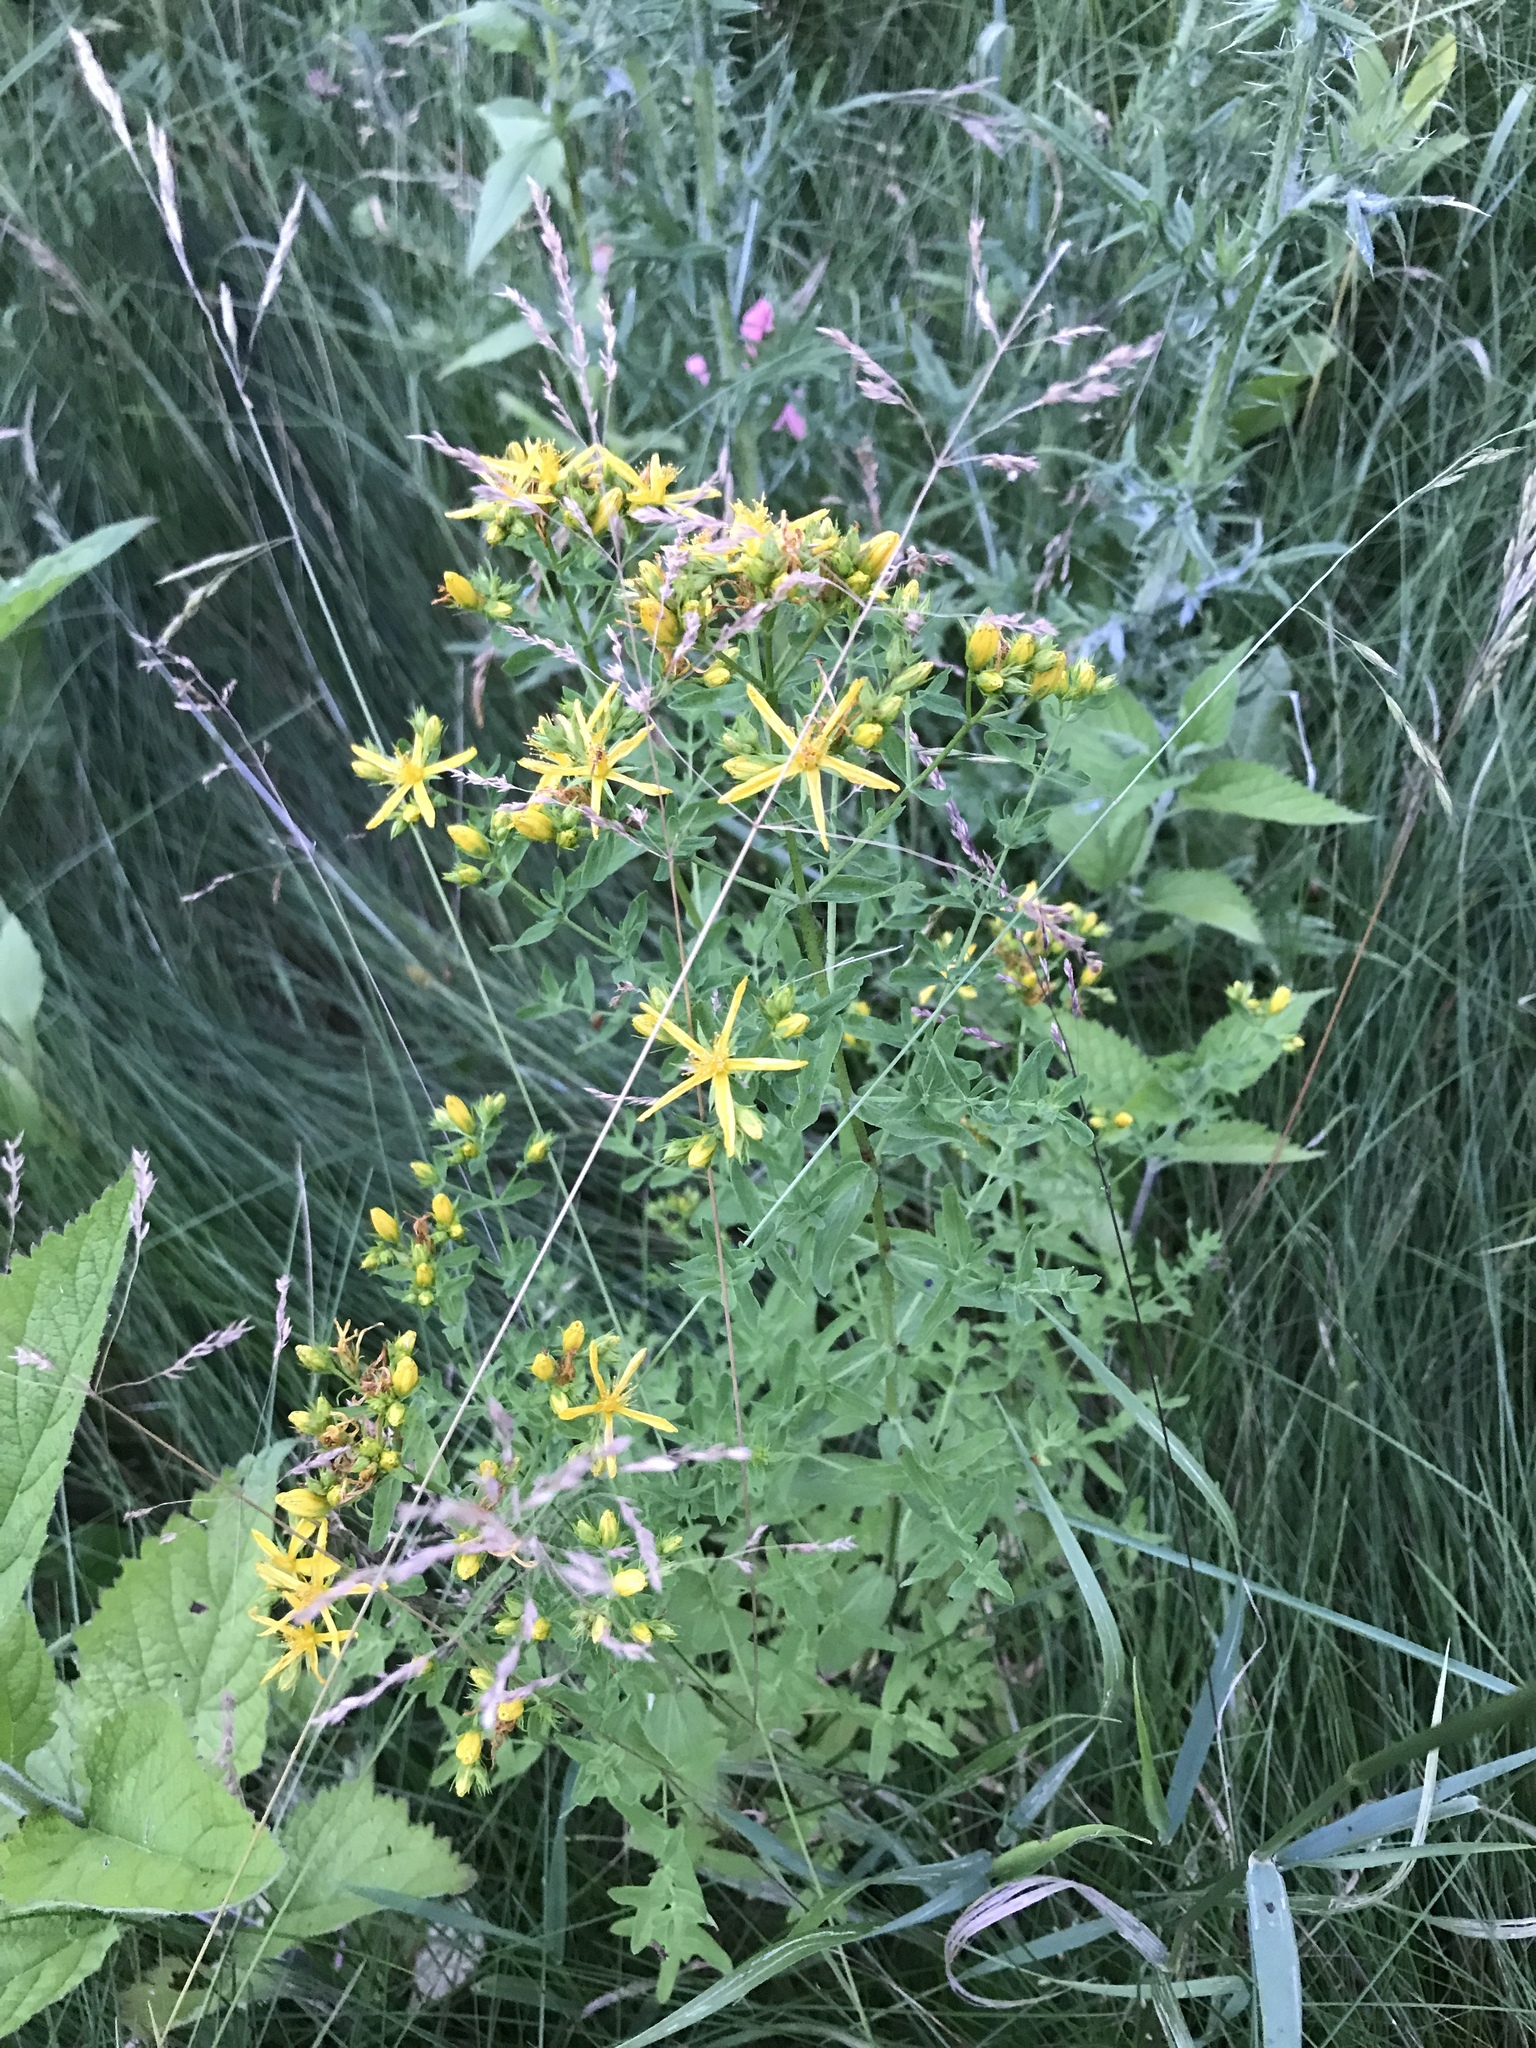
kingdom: Plantae
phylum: Tracheophyta
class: Magnoliopsida
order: Malpighiales
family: Hypericaceae
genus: Hypericum
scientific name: Hypericum perforatum
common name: Common st. johnswort
